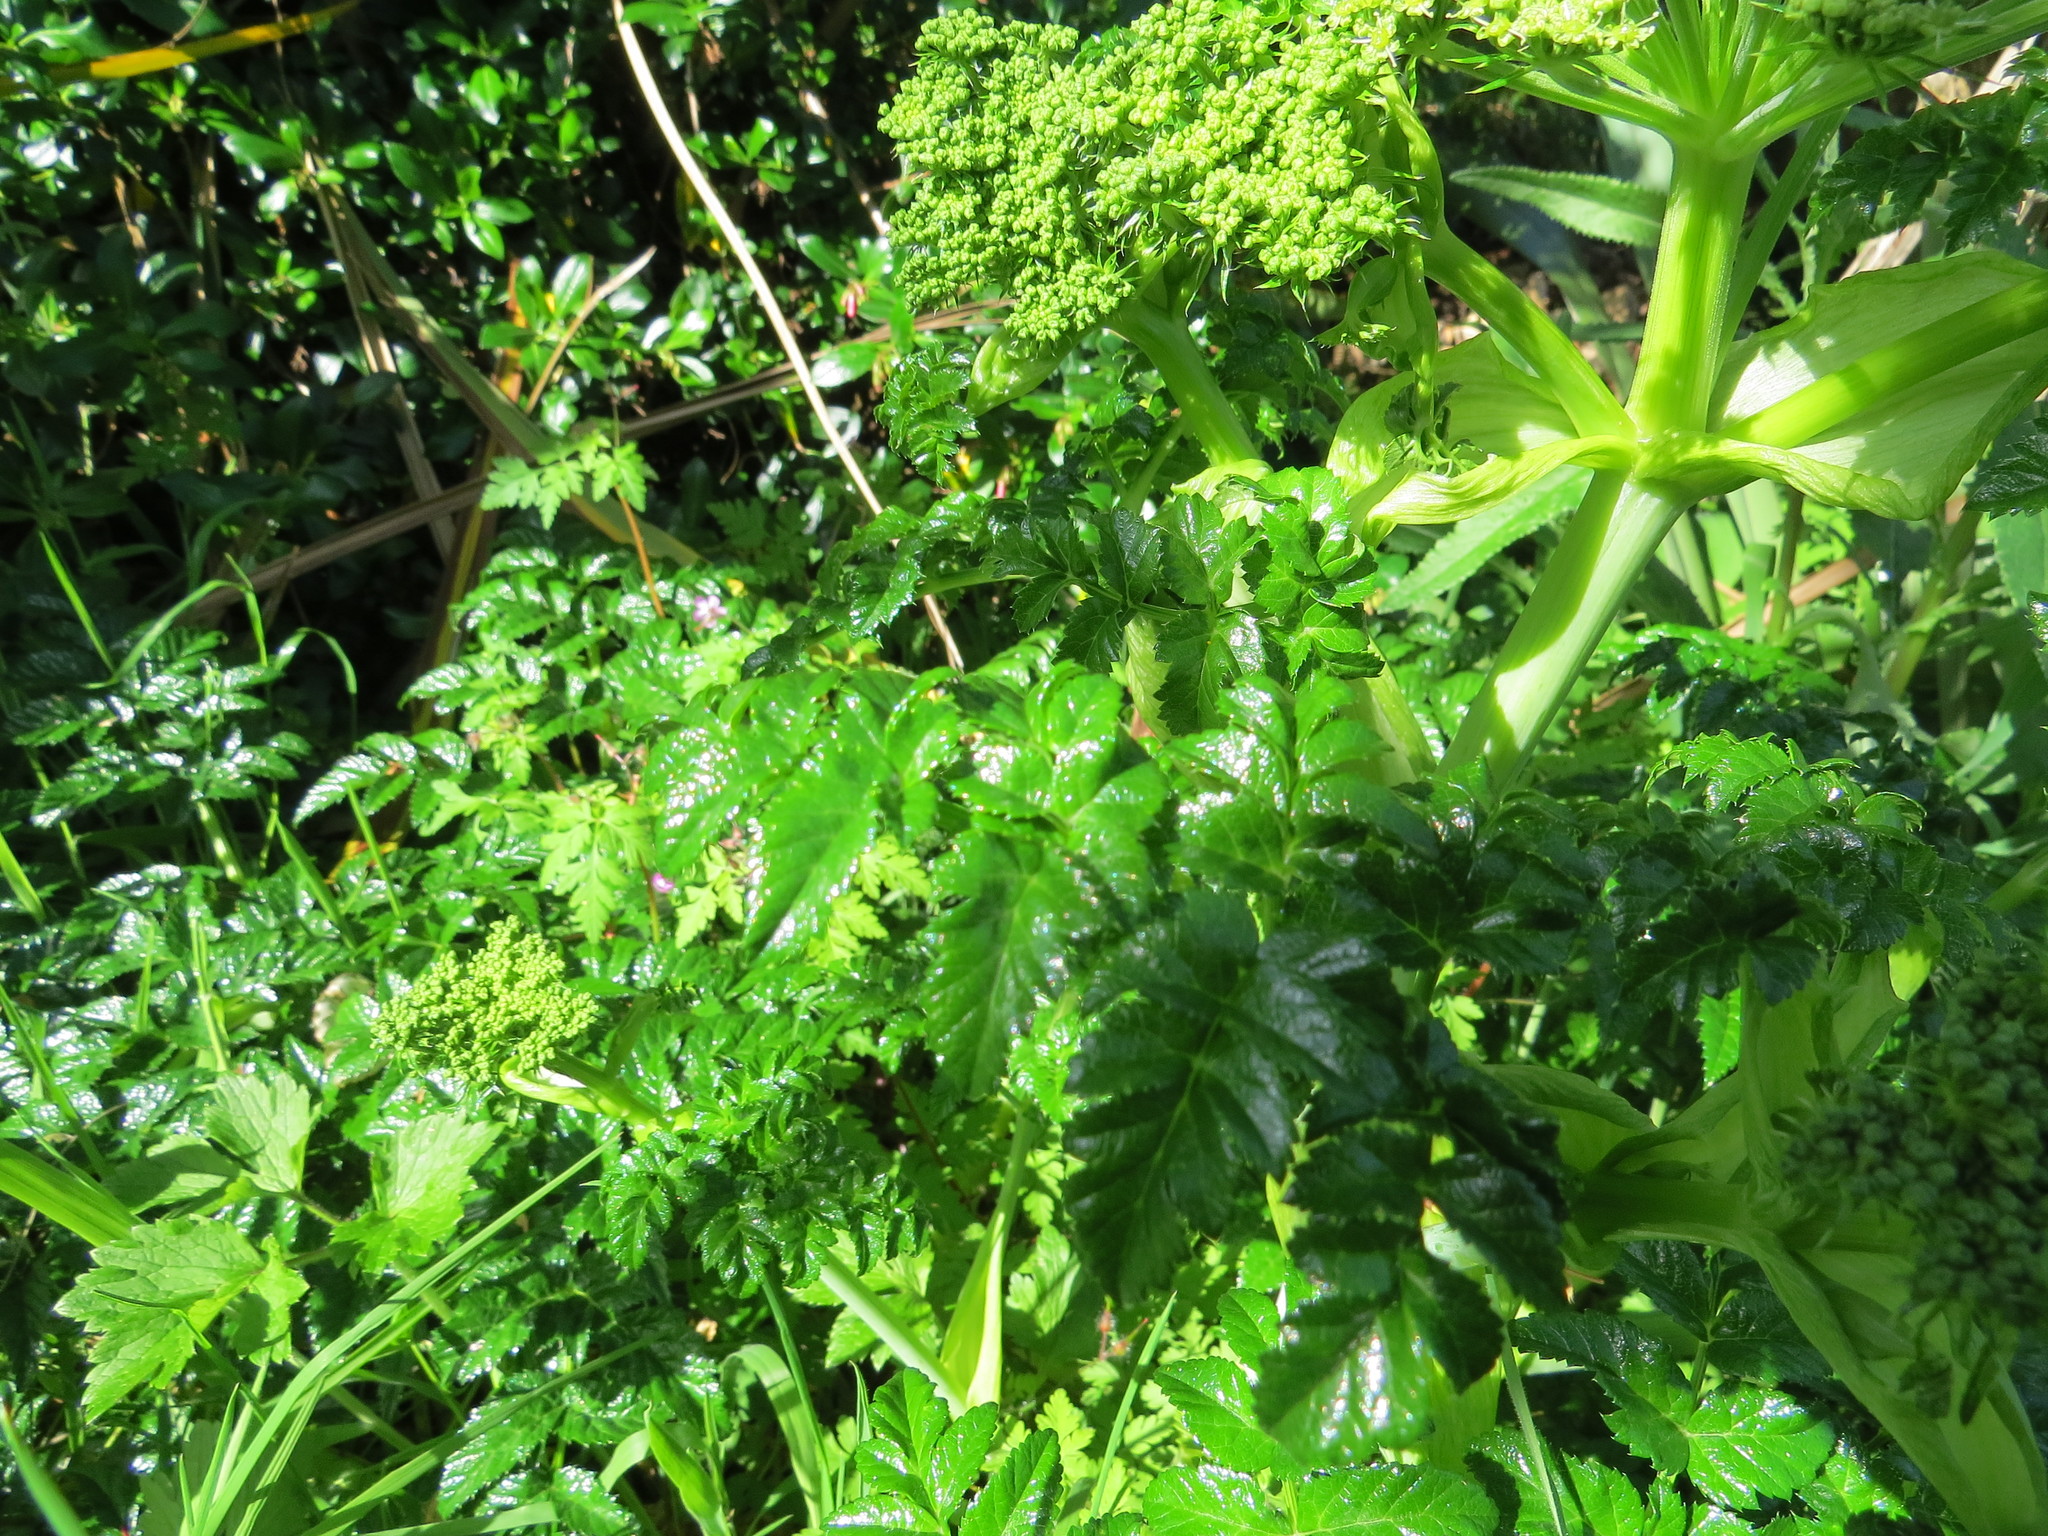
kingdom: Plantae
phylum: Tracheophyta
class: Magnoliopsida
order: Apiales
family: Apiaceae
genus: Angelica
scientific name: Angelica pachycarpa
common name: Portuguese angelica
